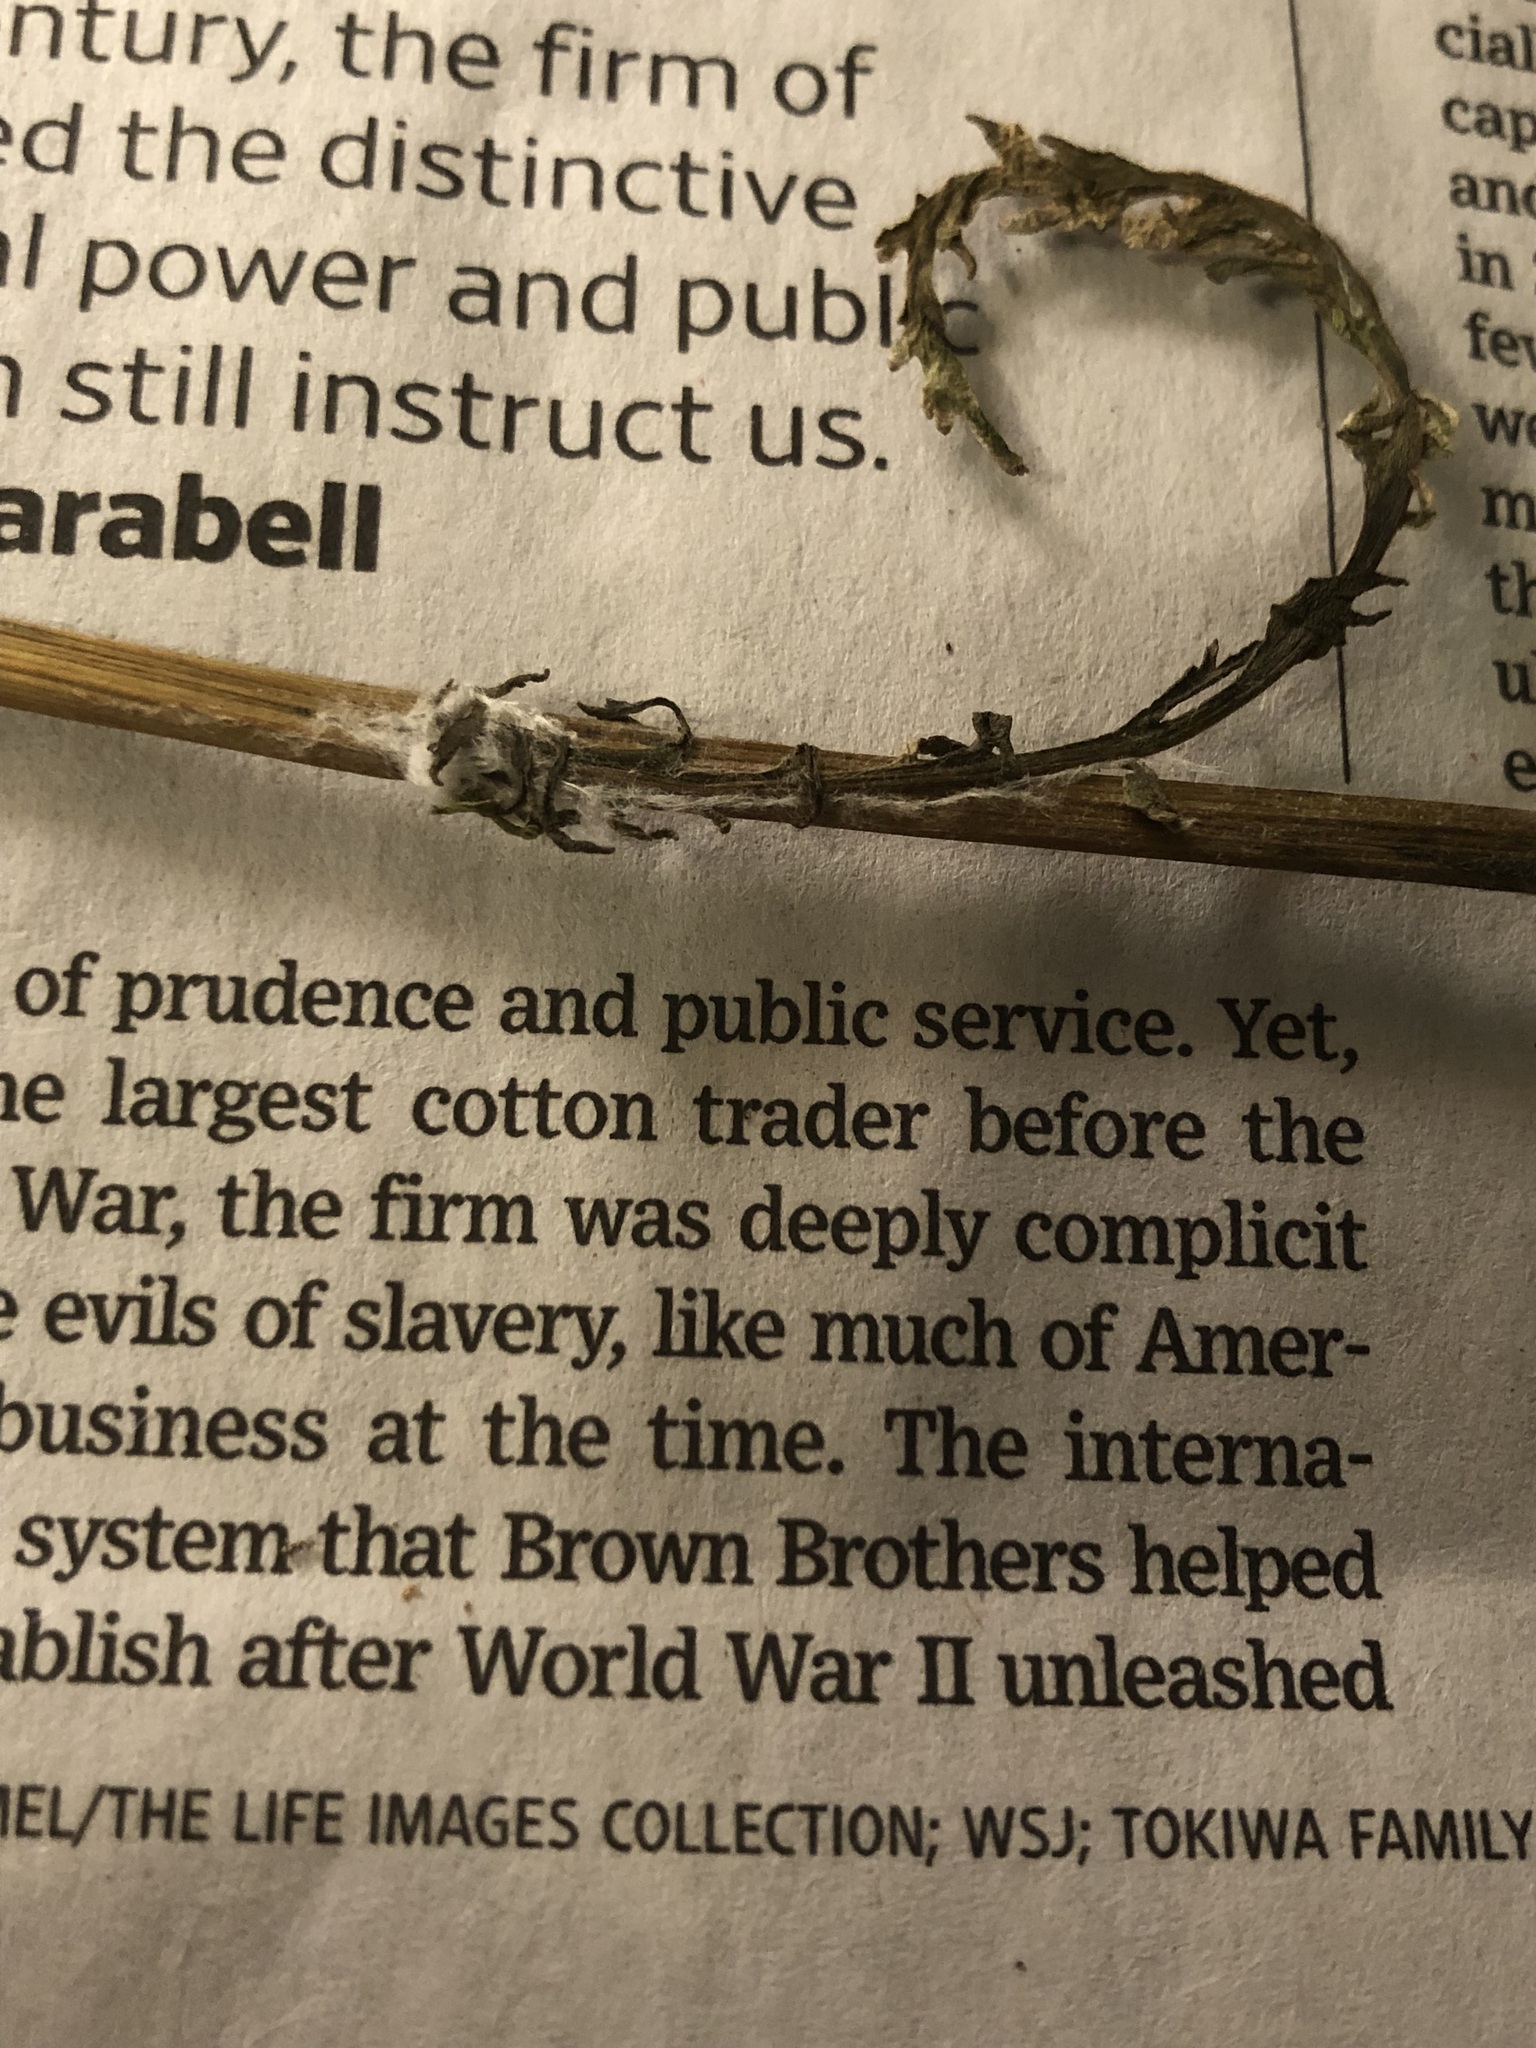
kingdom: Plantae
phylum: Tracheophyta
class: Magnoliopsida
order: Asterales
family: Asteraceae
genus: Packera
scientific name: Packera anonyma
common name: Small ragwort
